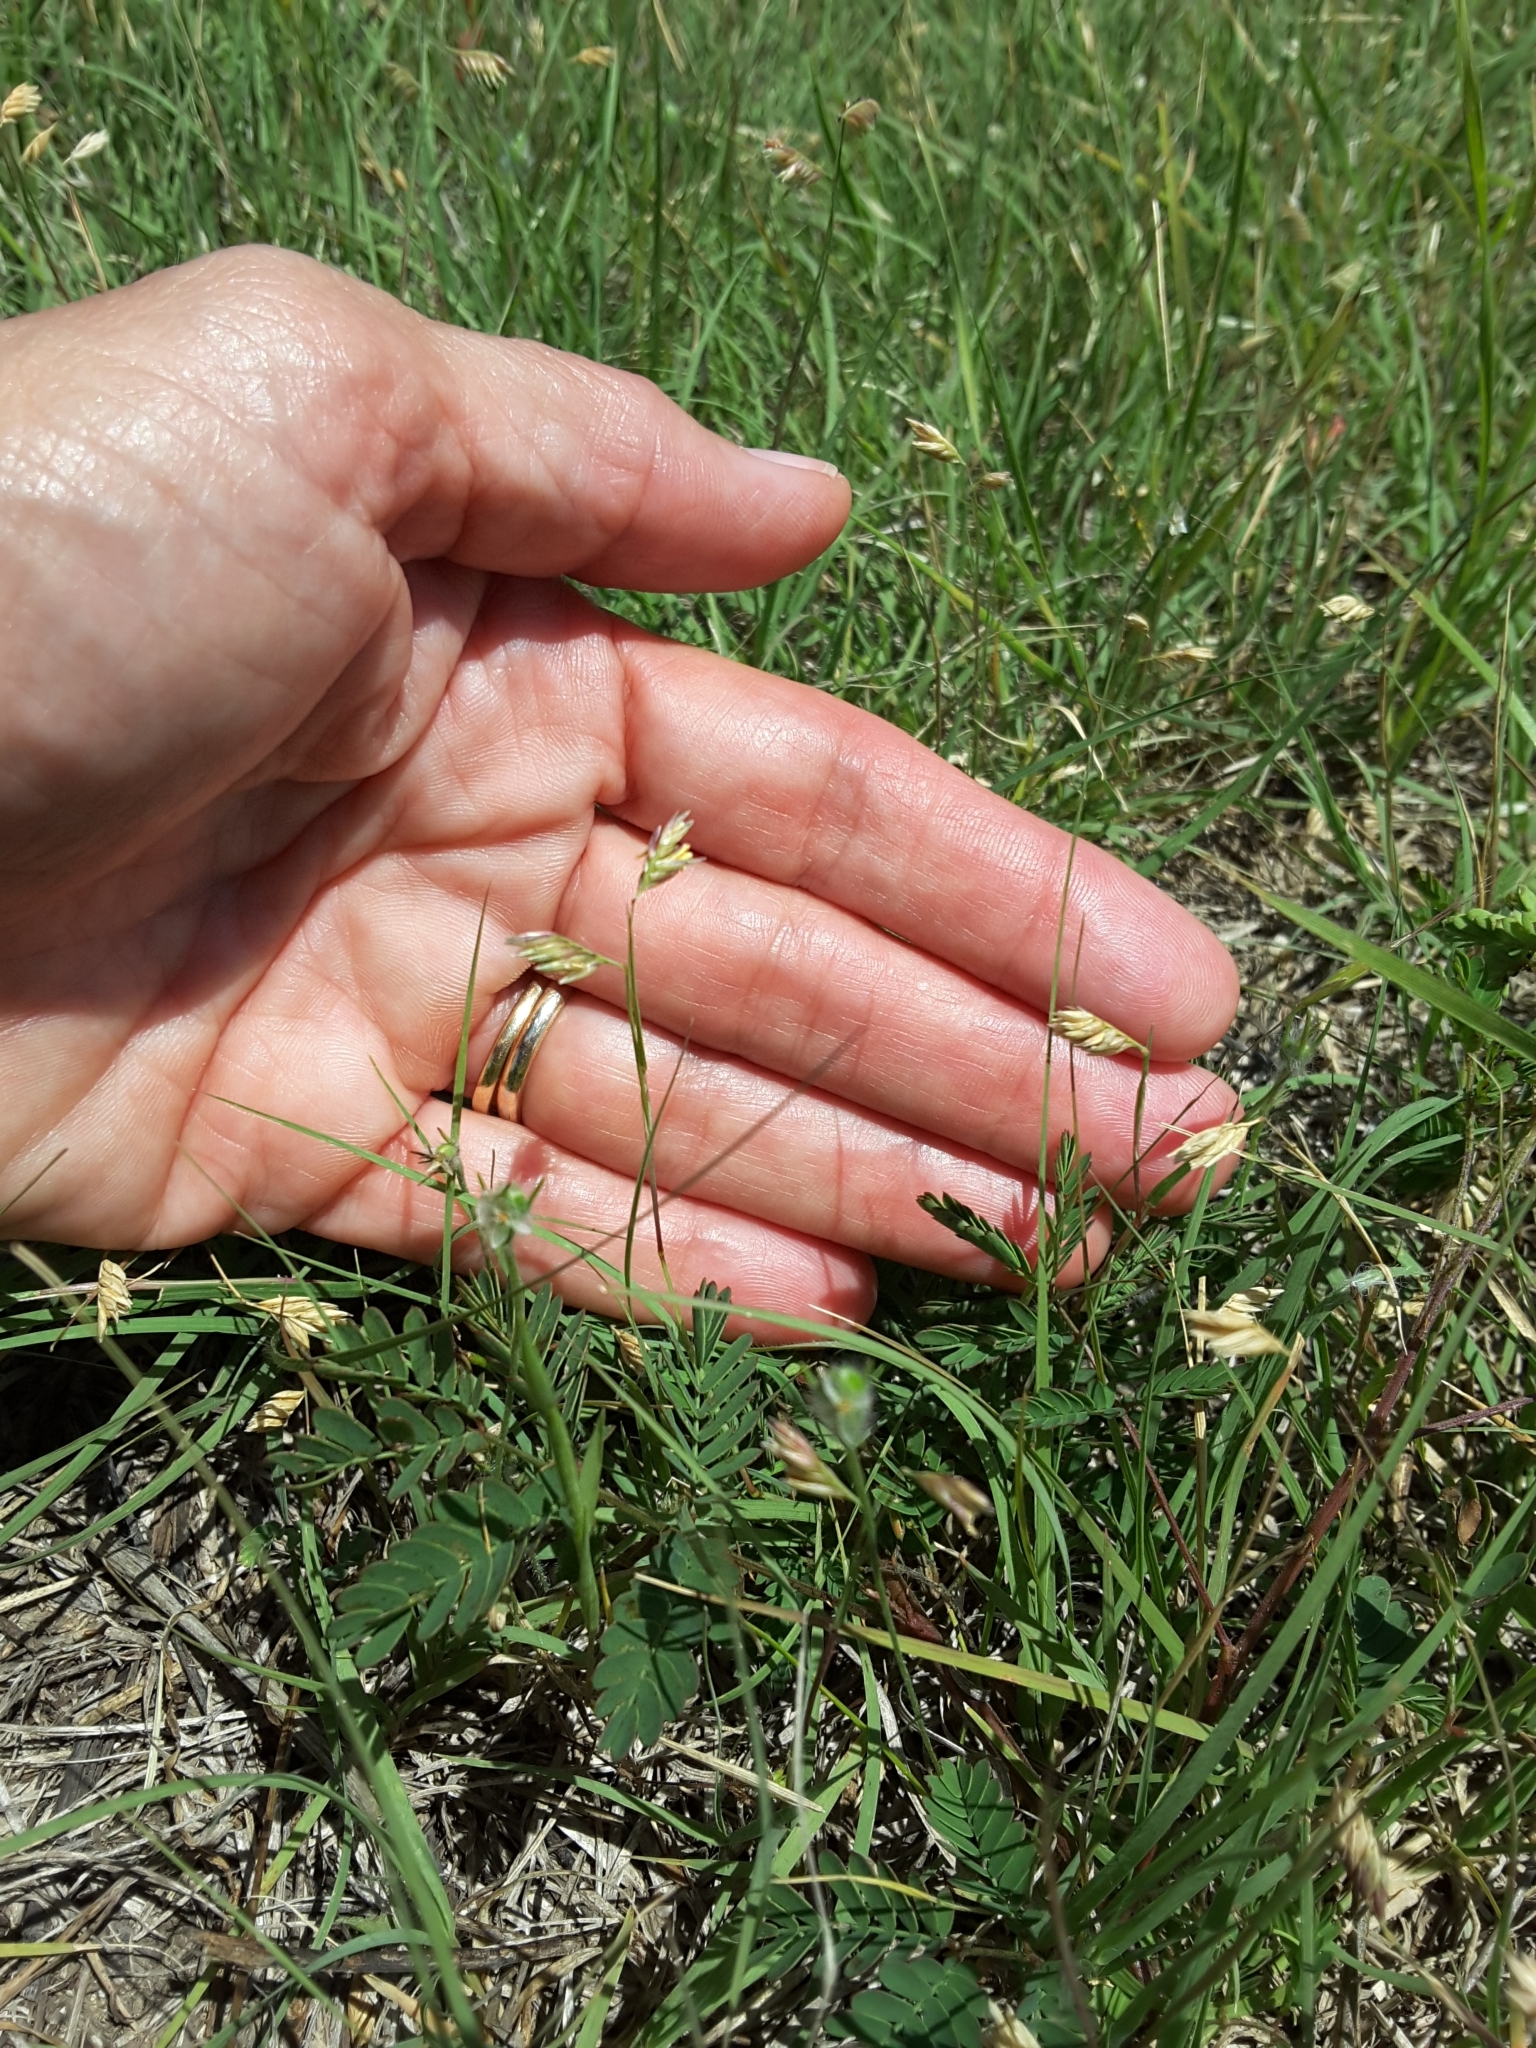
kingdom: Plantae
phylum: Tracheophyta
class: Liliopsida
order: Poales
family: Poaceae
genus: Bouteloua
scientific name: Bouteloua dactyloides
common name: Buffalo grass
